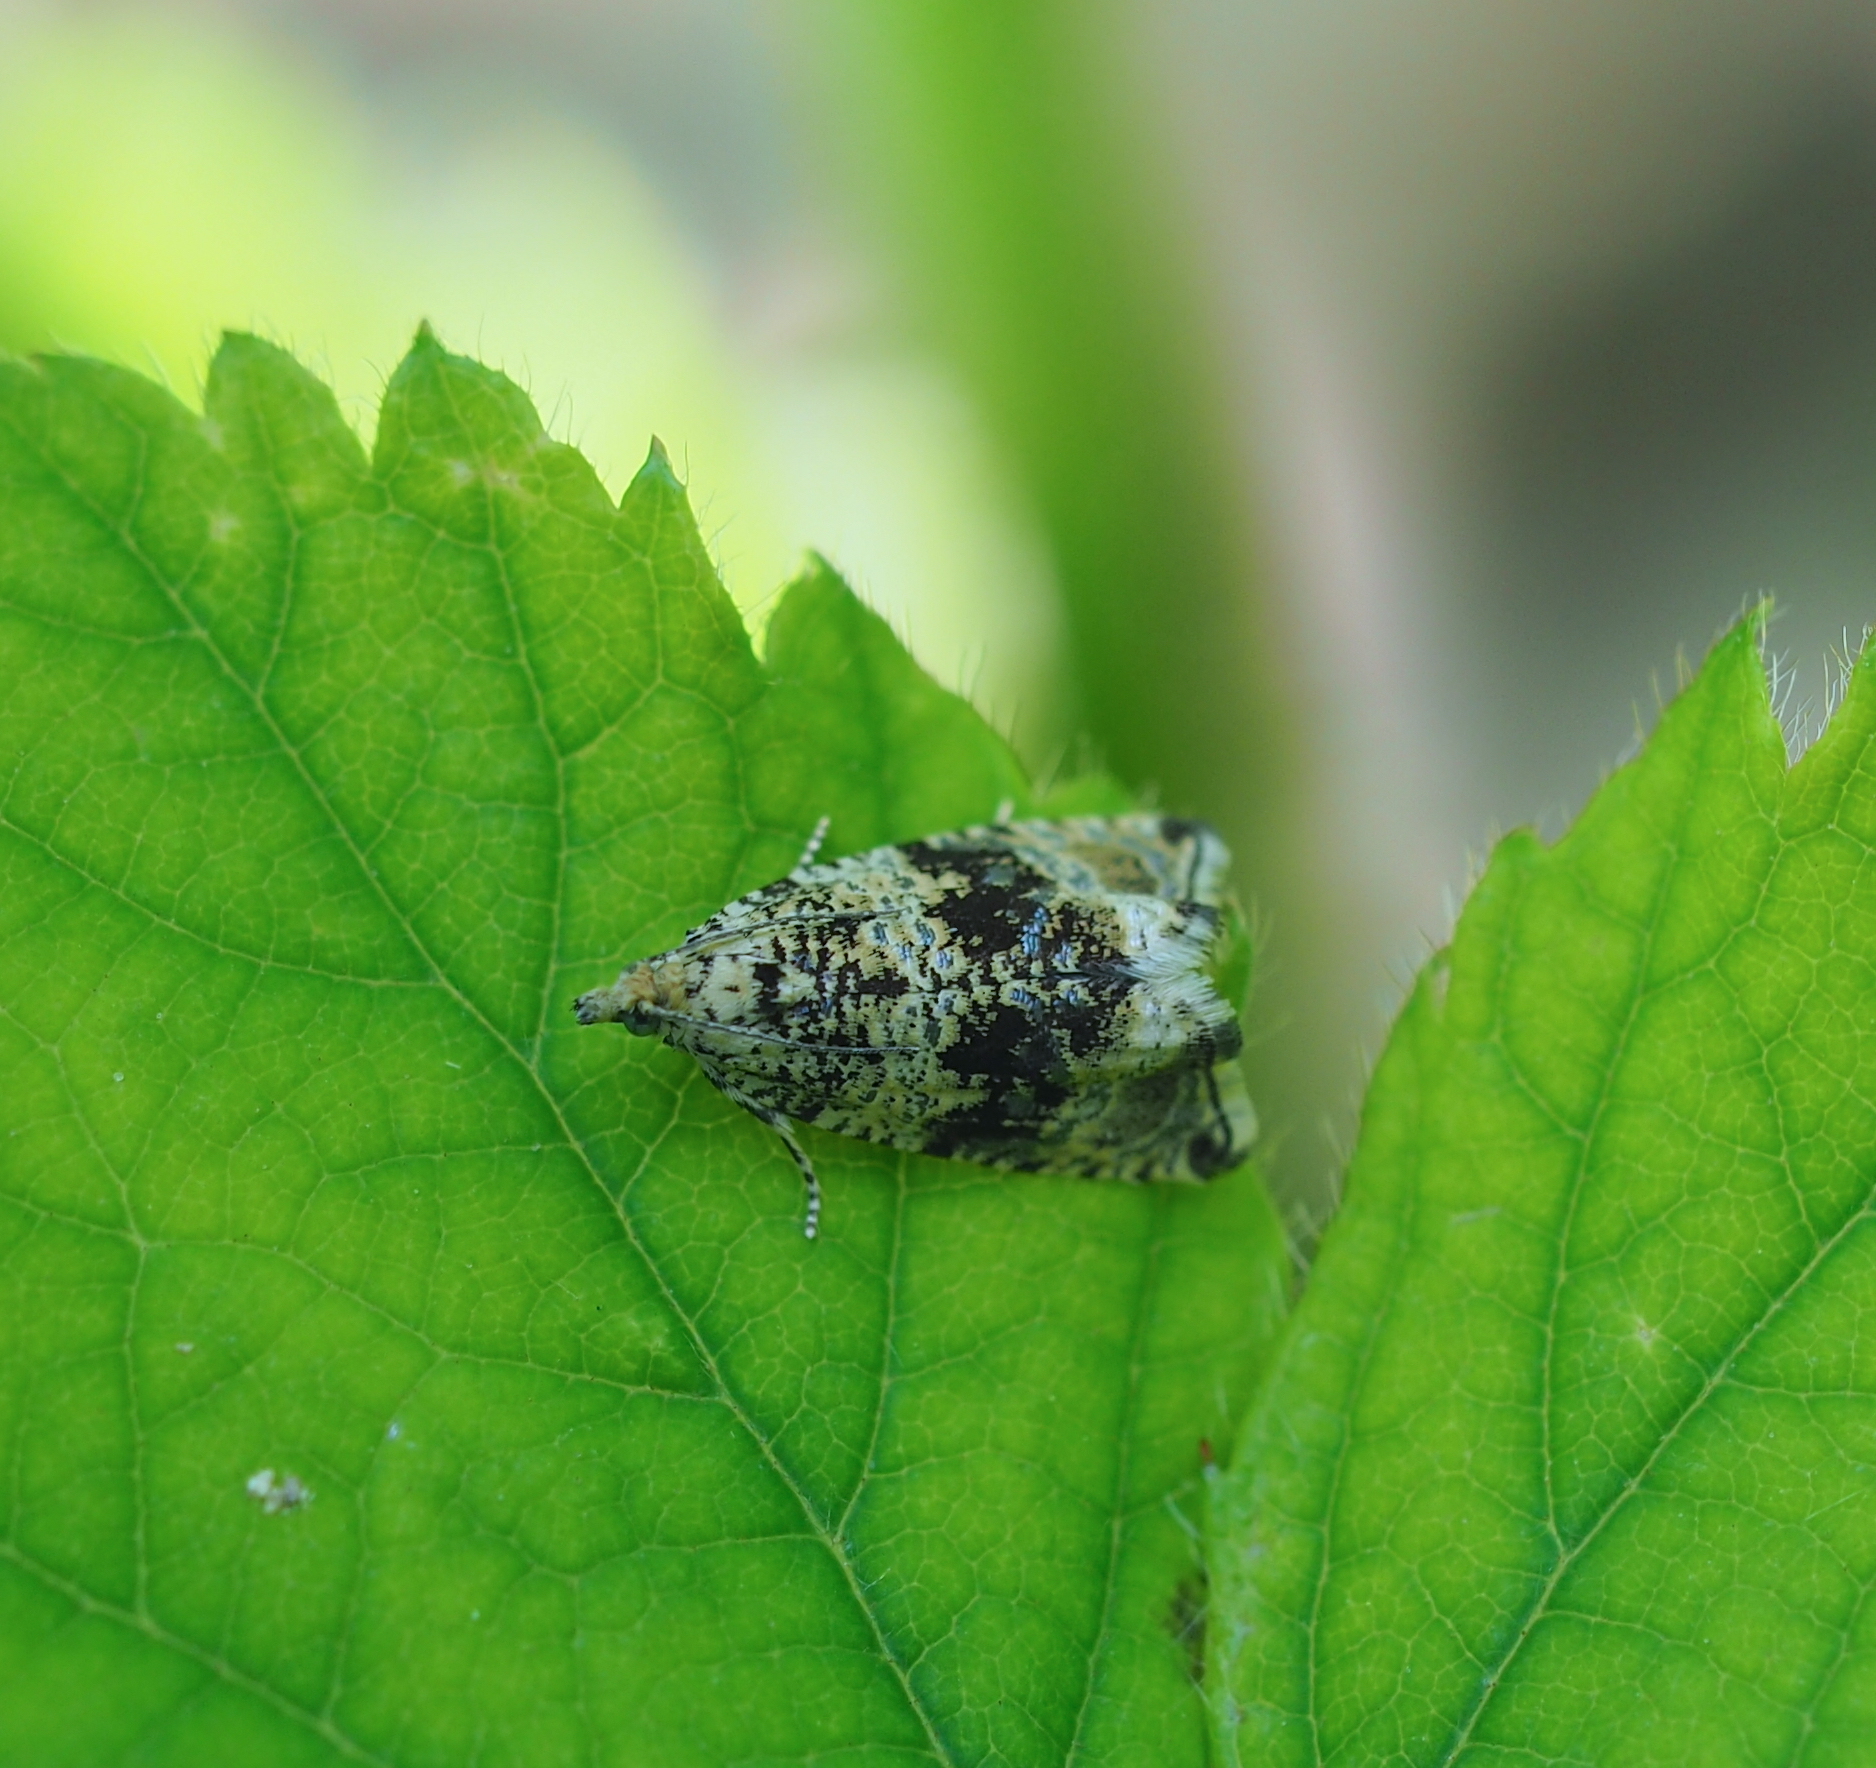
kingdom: Animalia
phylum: Arthropoda
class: Insecta
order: Lepidoptera
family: Tortricidae
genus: Syricoris
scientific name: Syricoris lacunana
